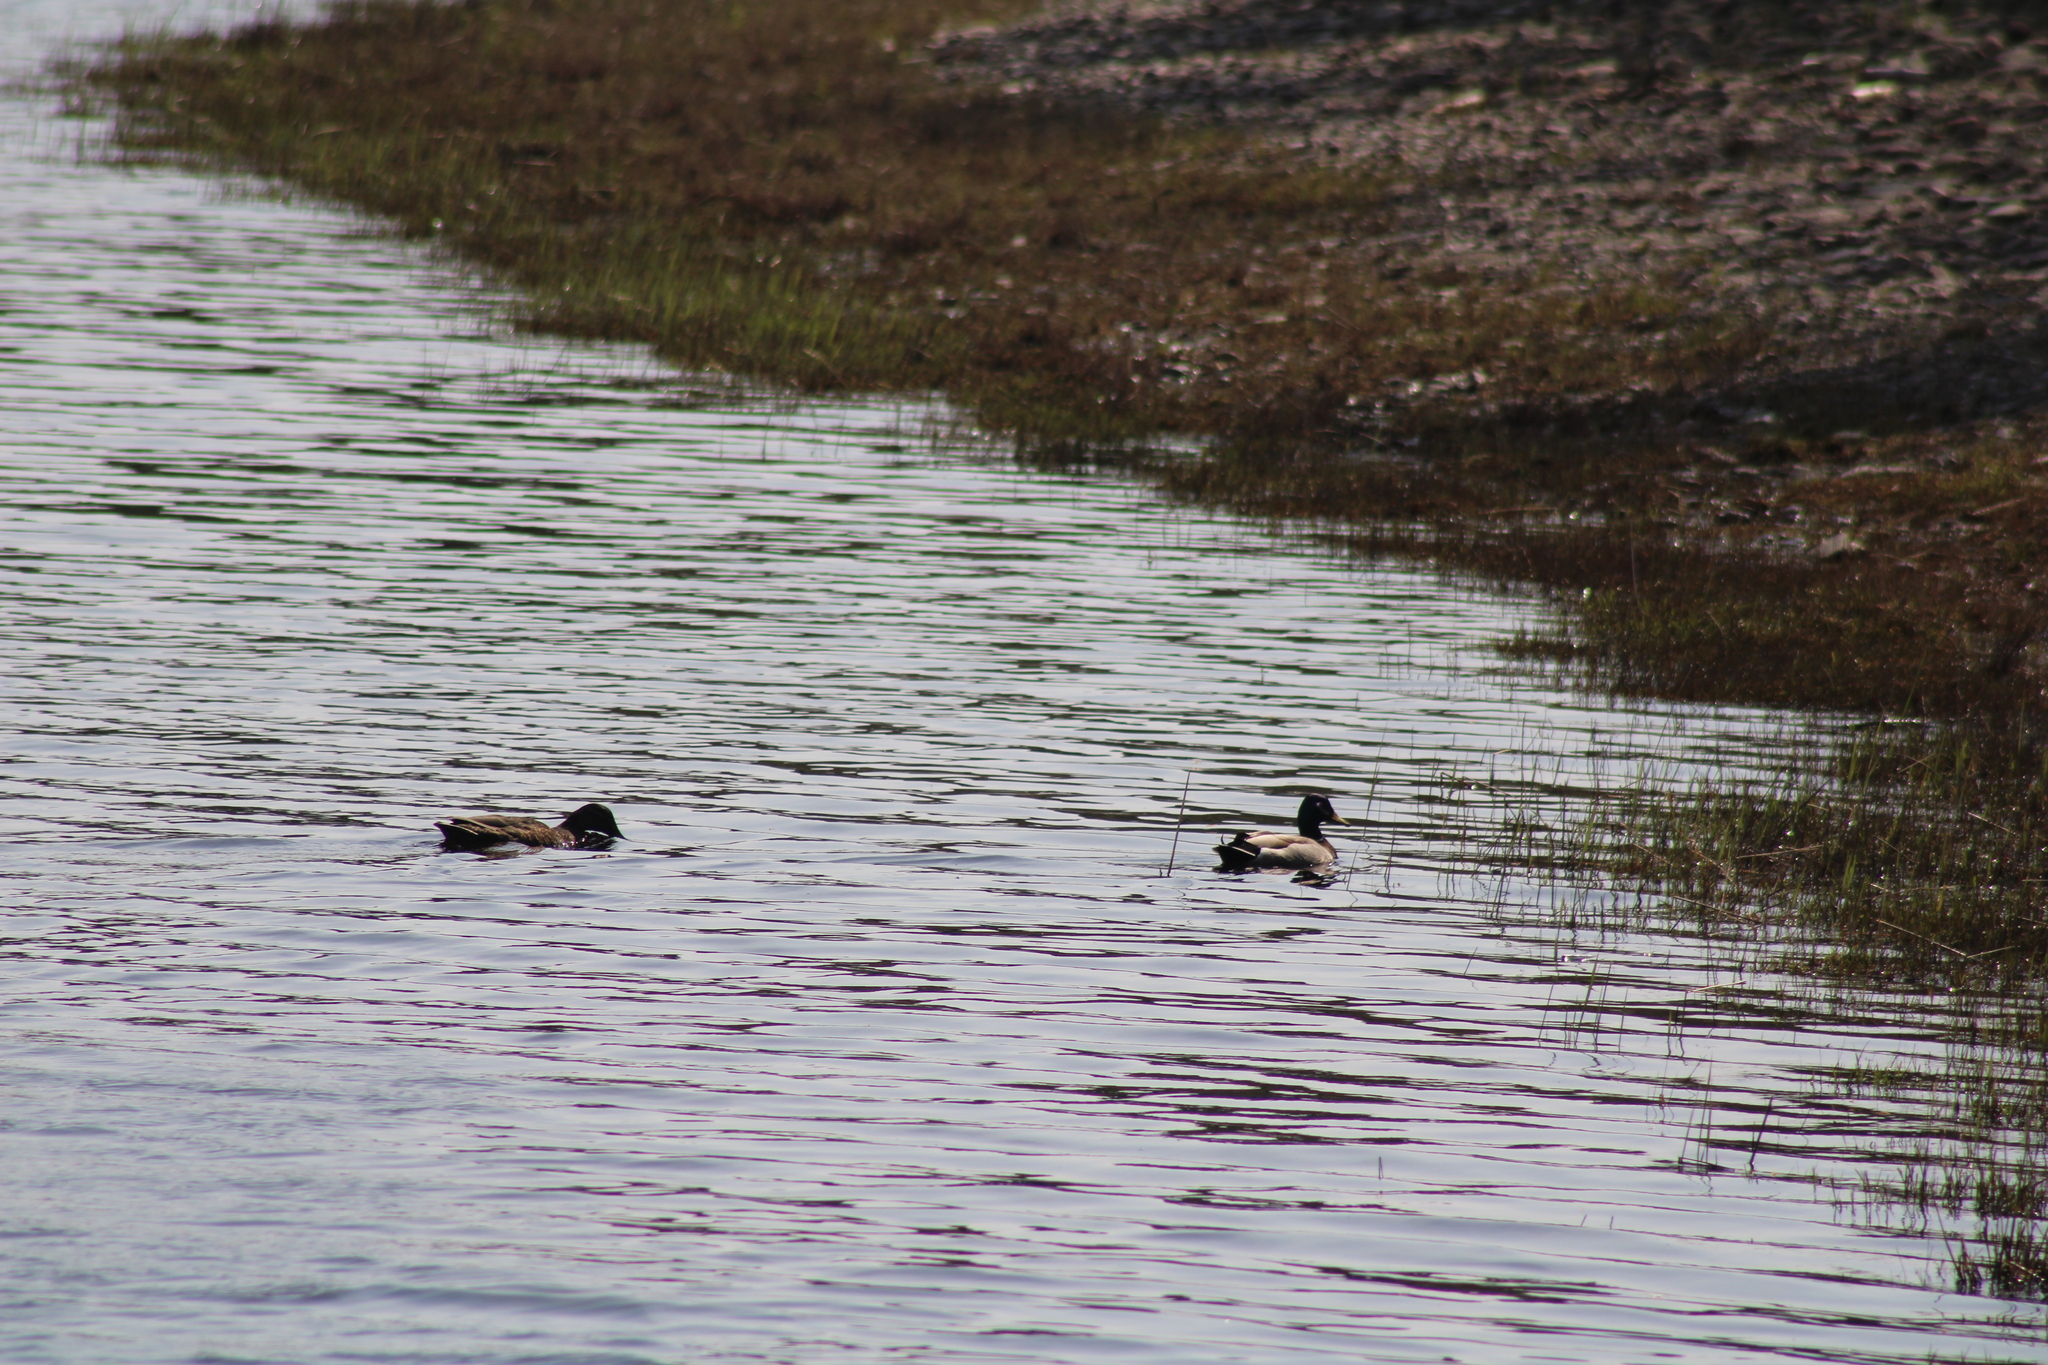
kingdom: Animalia
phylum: Chordata
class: Aves
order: Anseriformes
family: Anatidae
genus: Anas
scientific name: Anas platyrhynchos
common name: Mallard
